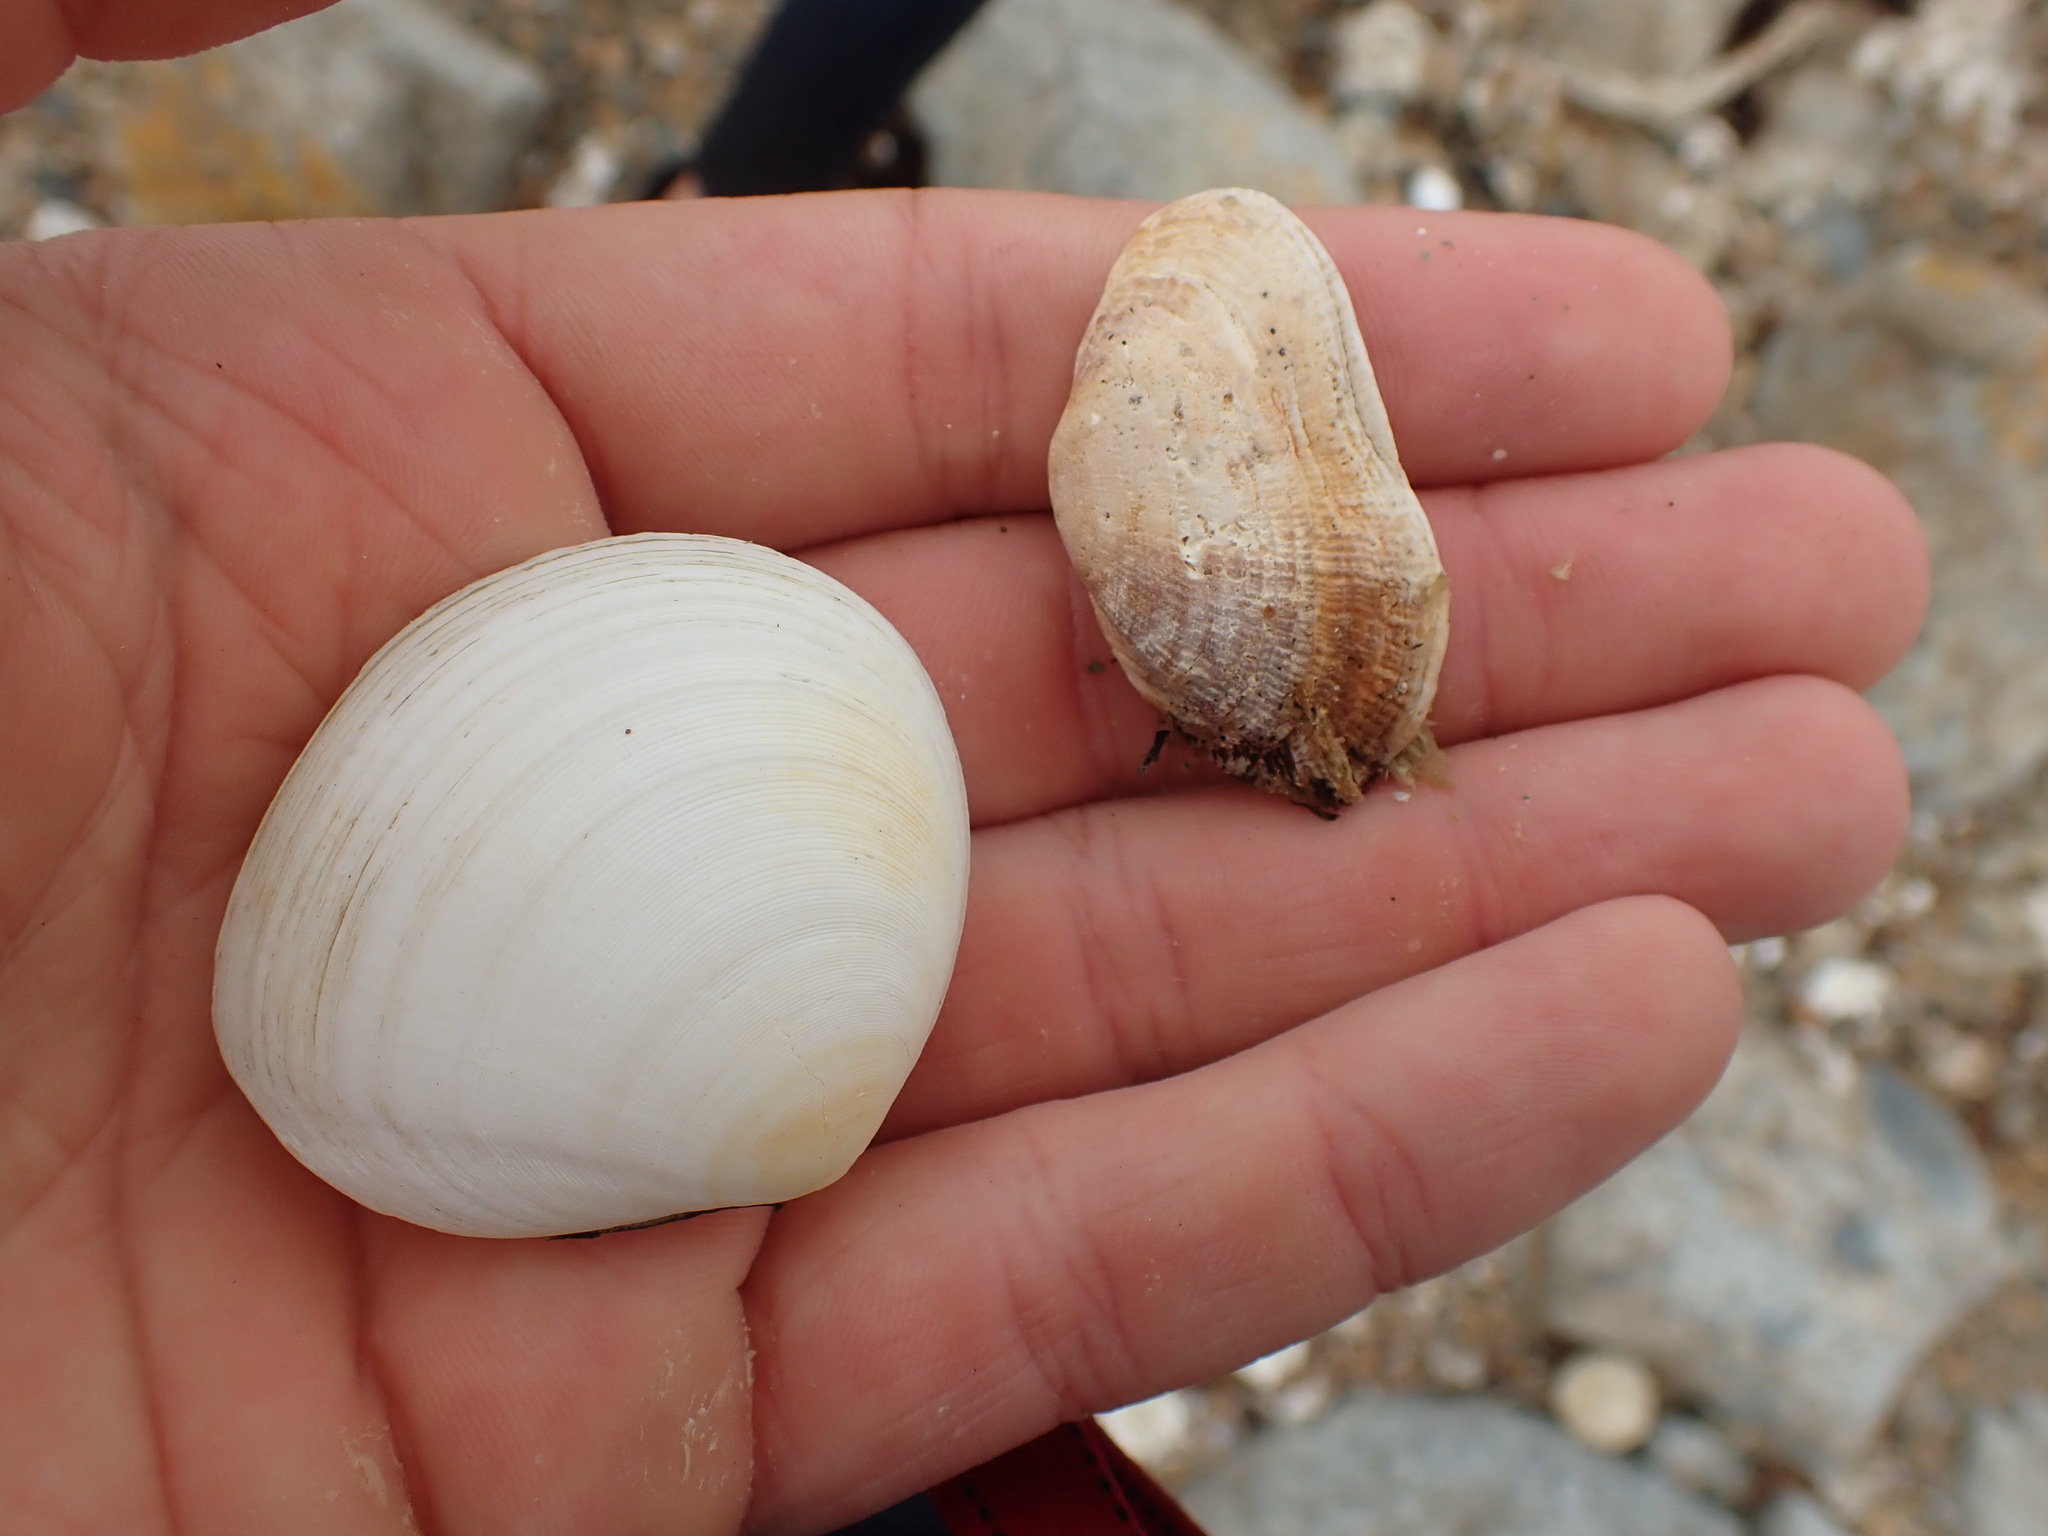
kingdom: Animalia
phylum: Mollusca
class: Bivalvia
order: Arcida
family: Arcidae
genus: Barbatia
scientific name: Barbatia novaezealandiae
